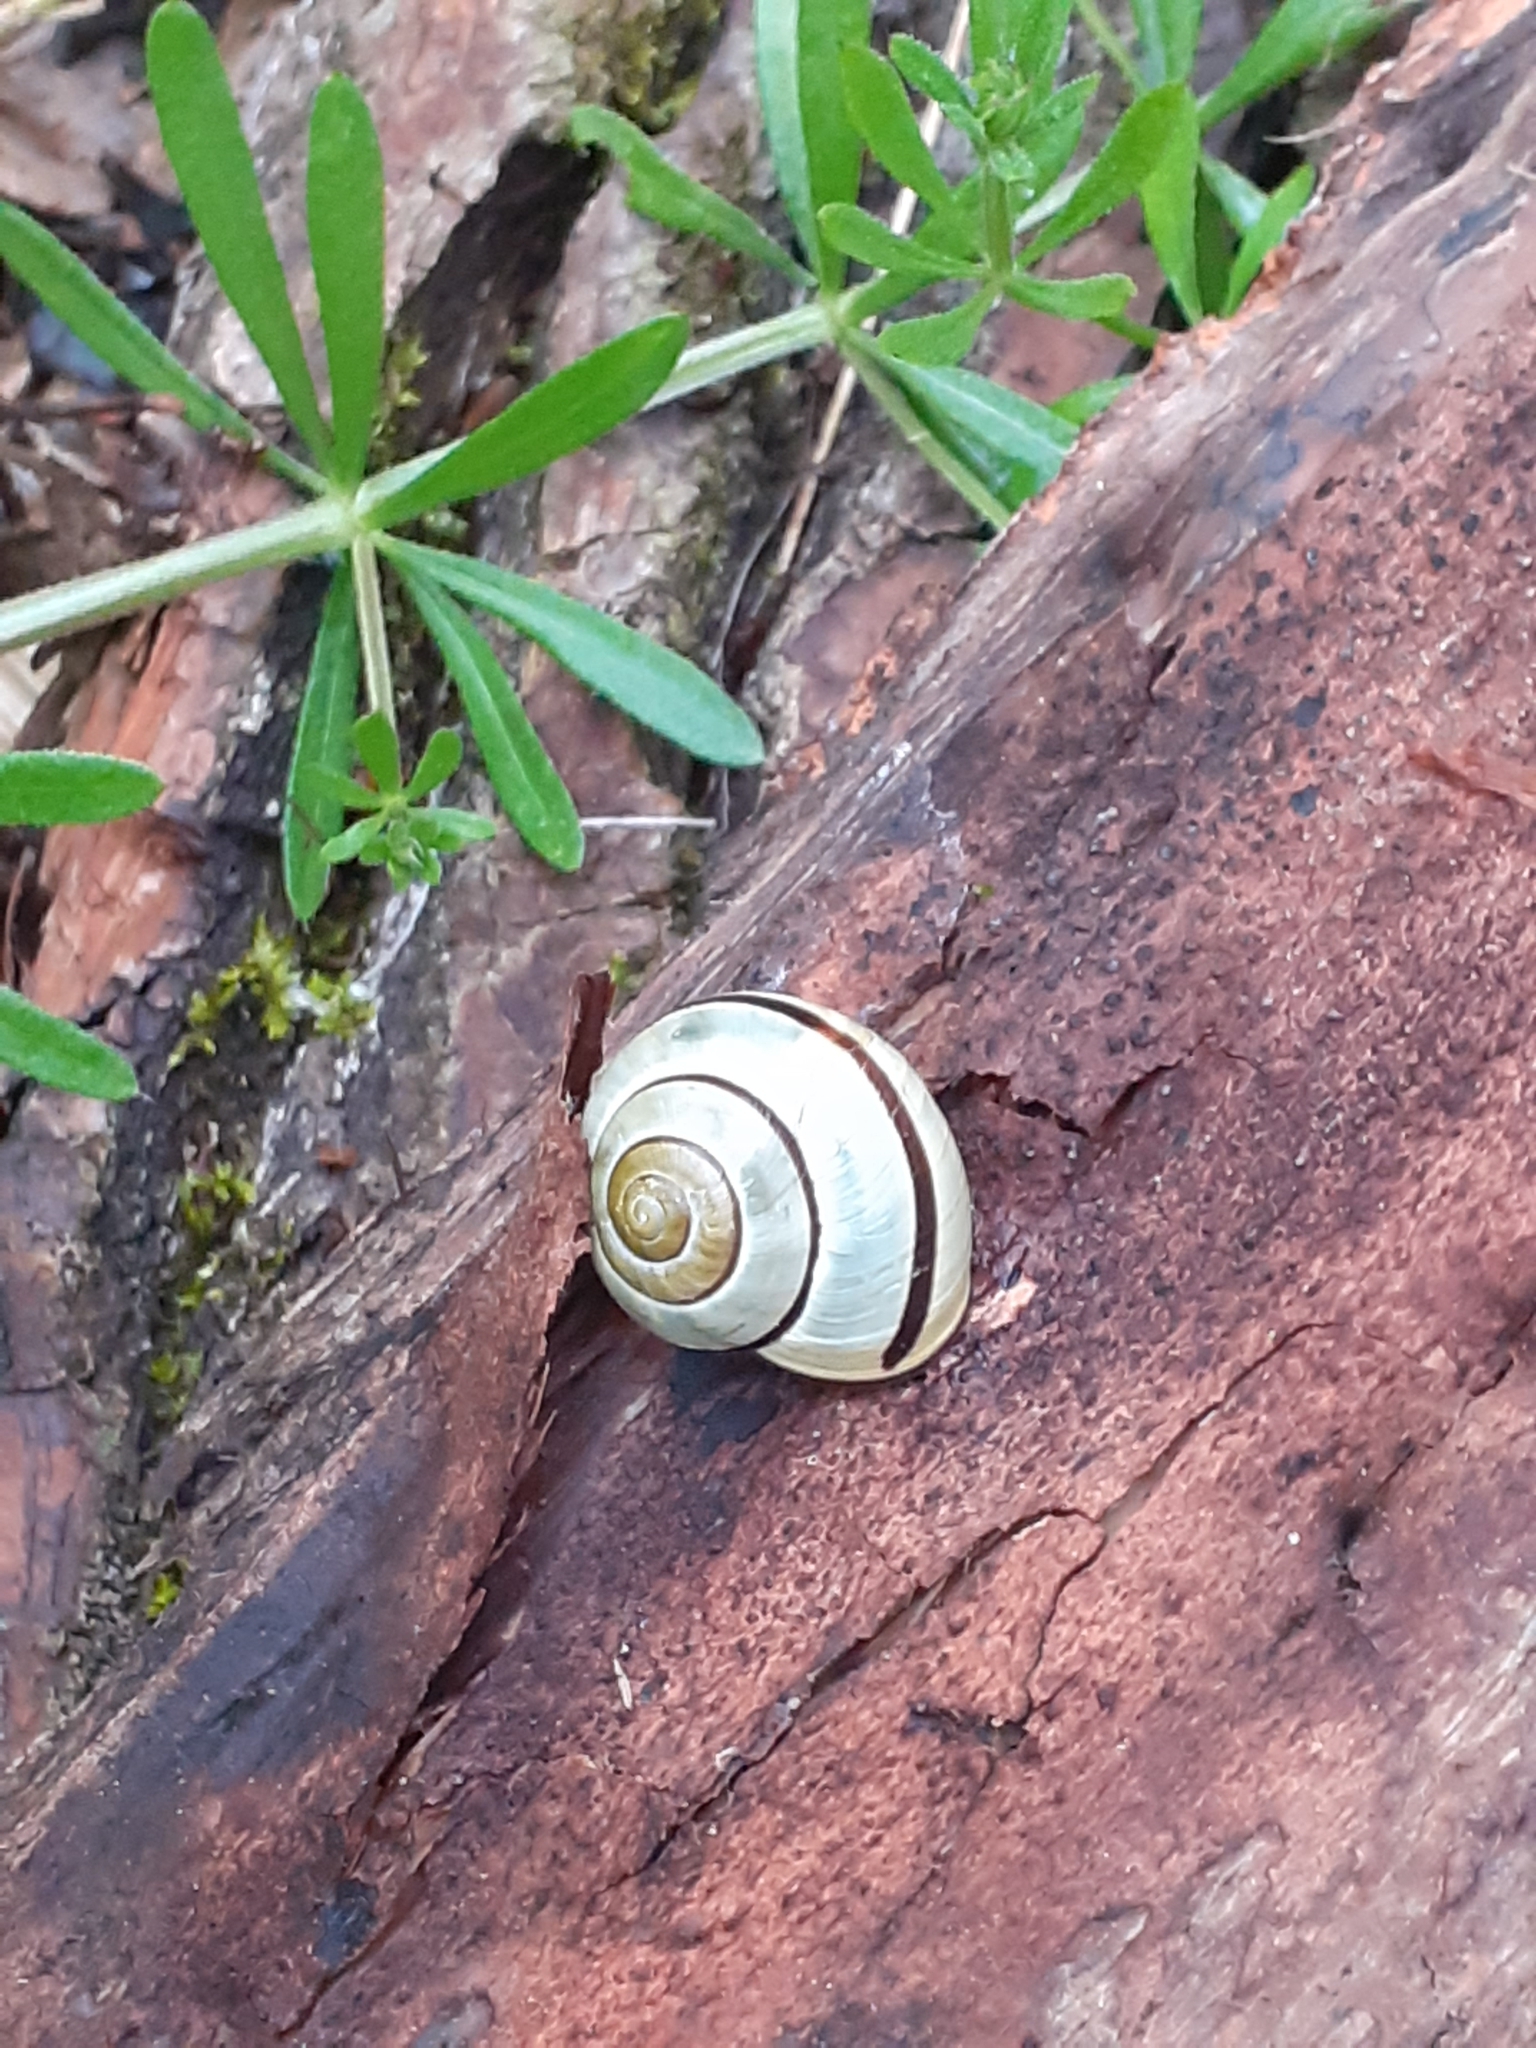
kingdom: Animalia
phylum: Mollusca
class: Gastropoda
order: Stylommatophora
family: Helicidae
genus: Cepaea
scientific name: Cepaea nemoralis
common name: Grovesnail
